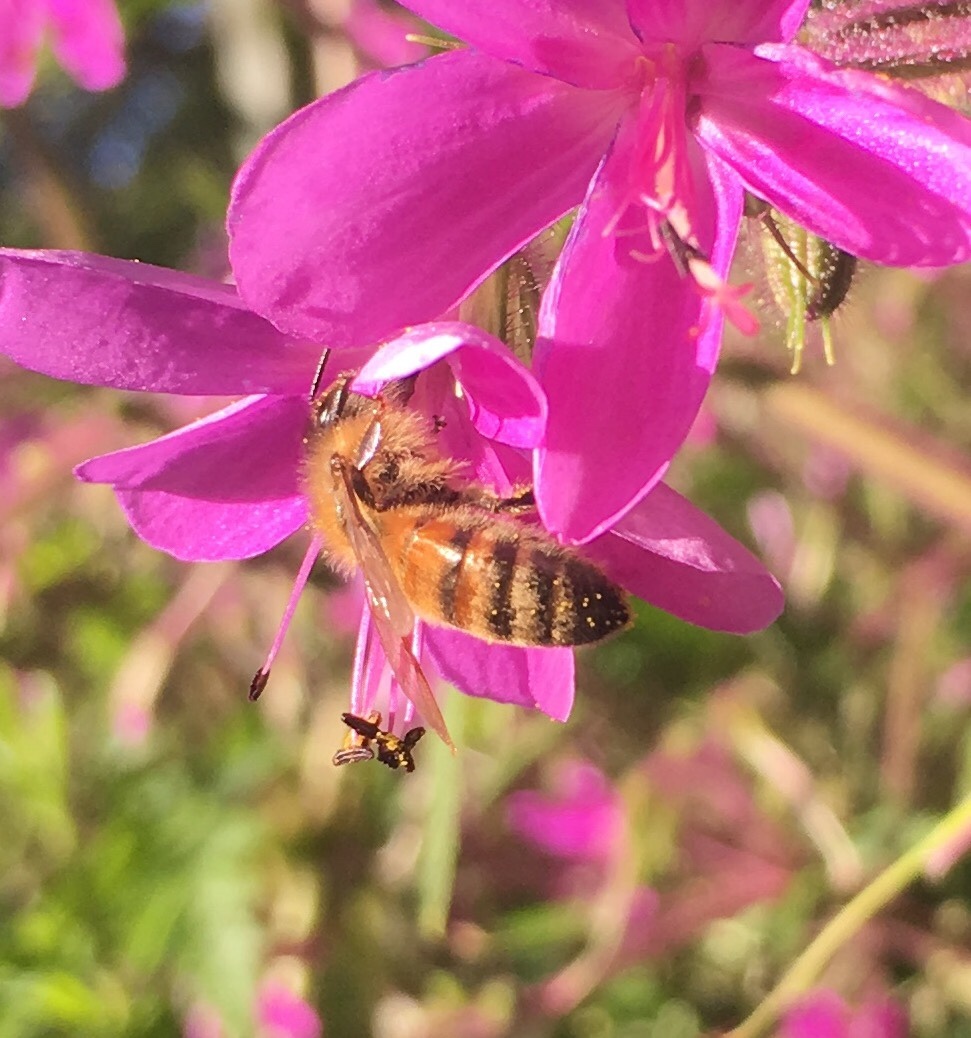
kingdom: Animalia
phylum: Arthropoda
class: Insecta
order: Hymenoptera
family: Apidae
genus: Apis
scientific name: Apis mellifera
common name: Honey bee
